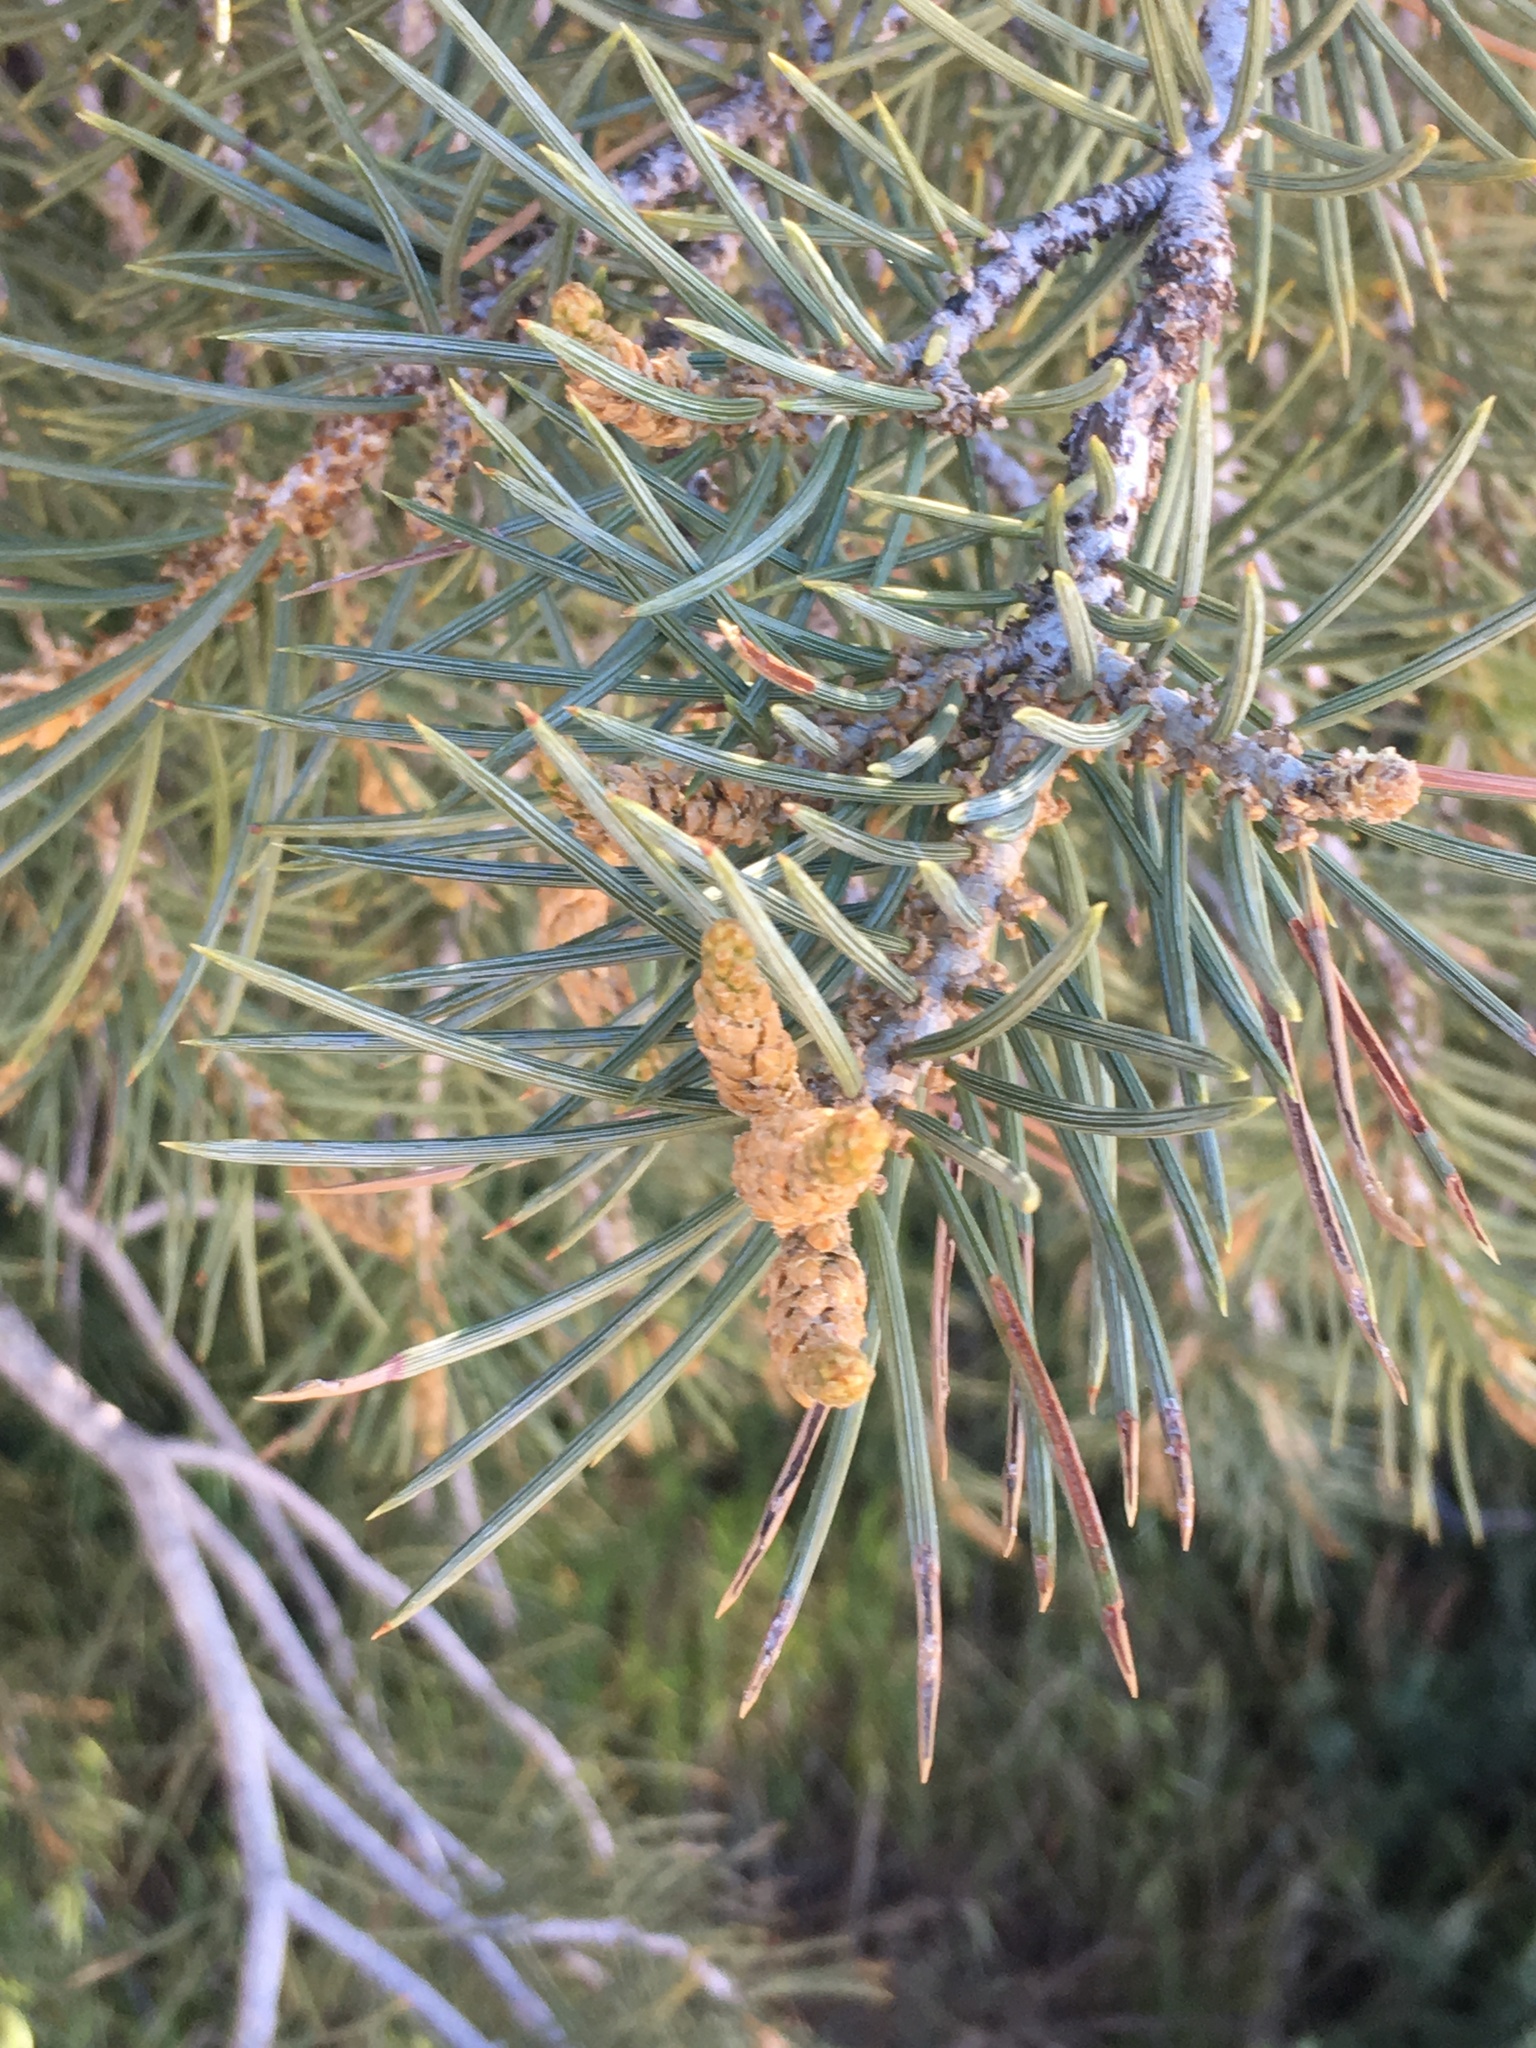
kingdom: Plantae
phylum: Tracheophyta
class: Pinopsida
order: Pinales
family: Pinaceae
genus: Pinus
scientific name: Pinus monophylla
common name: One-leaved nut pine
